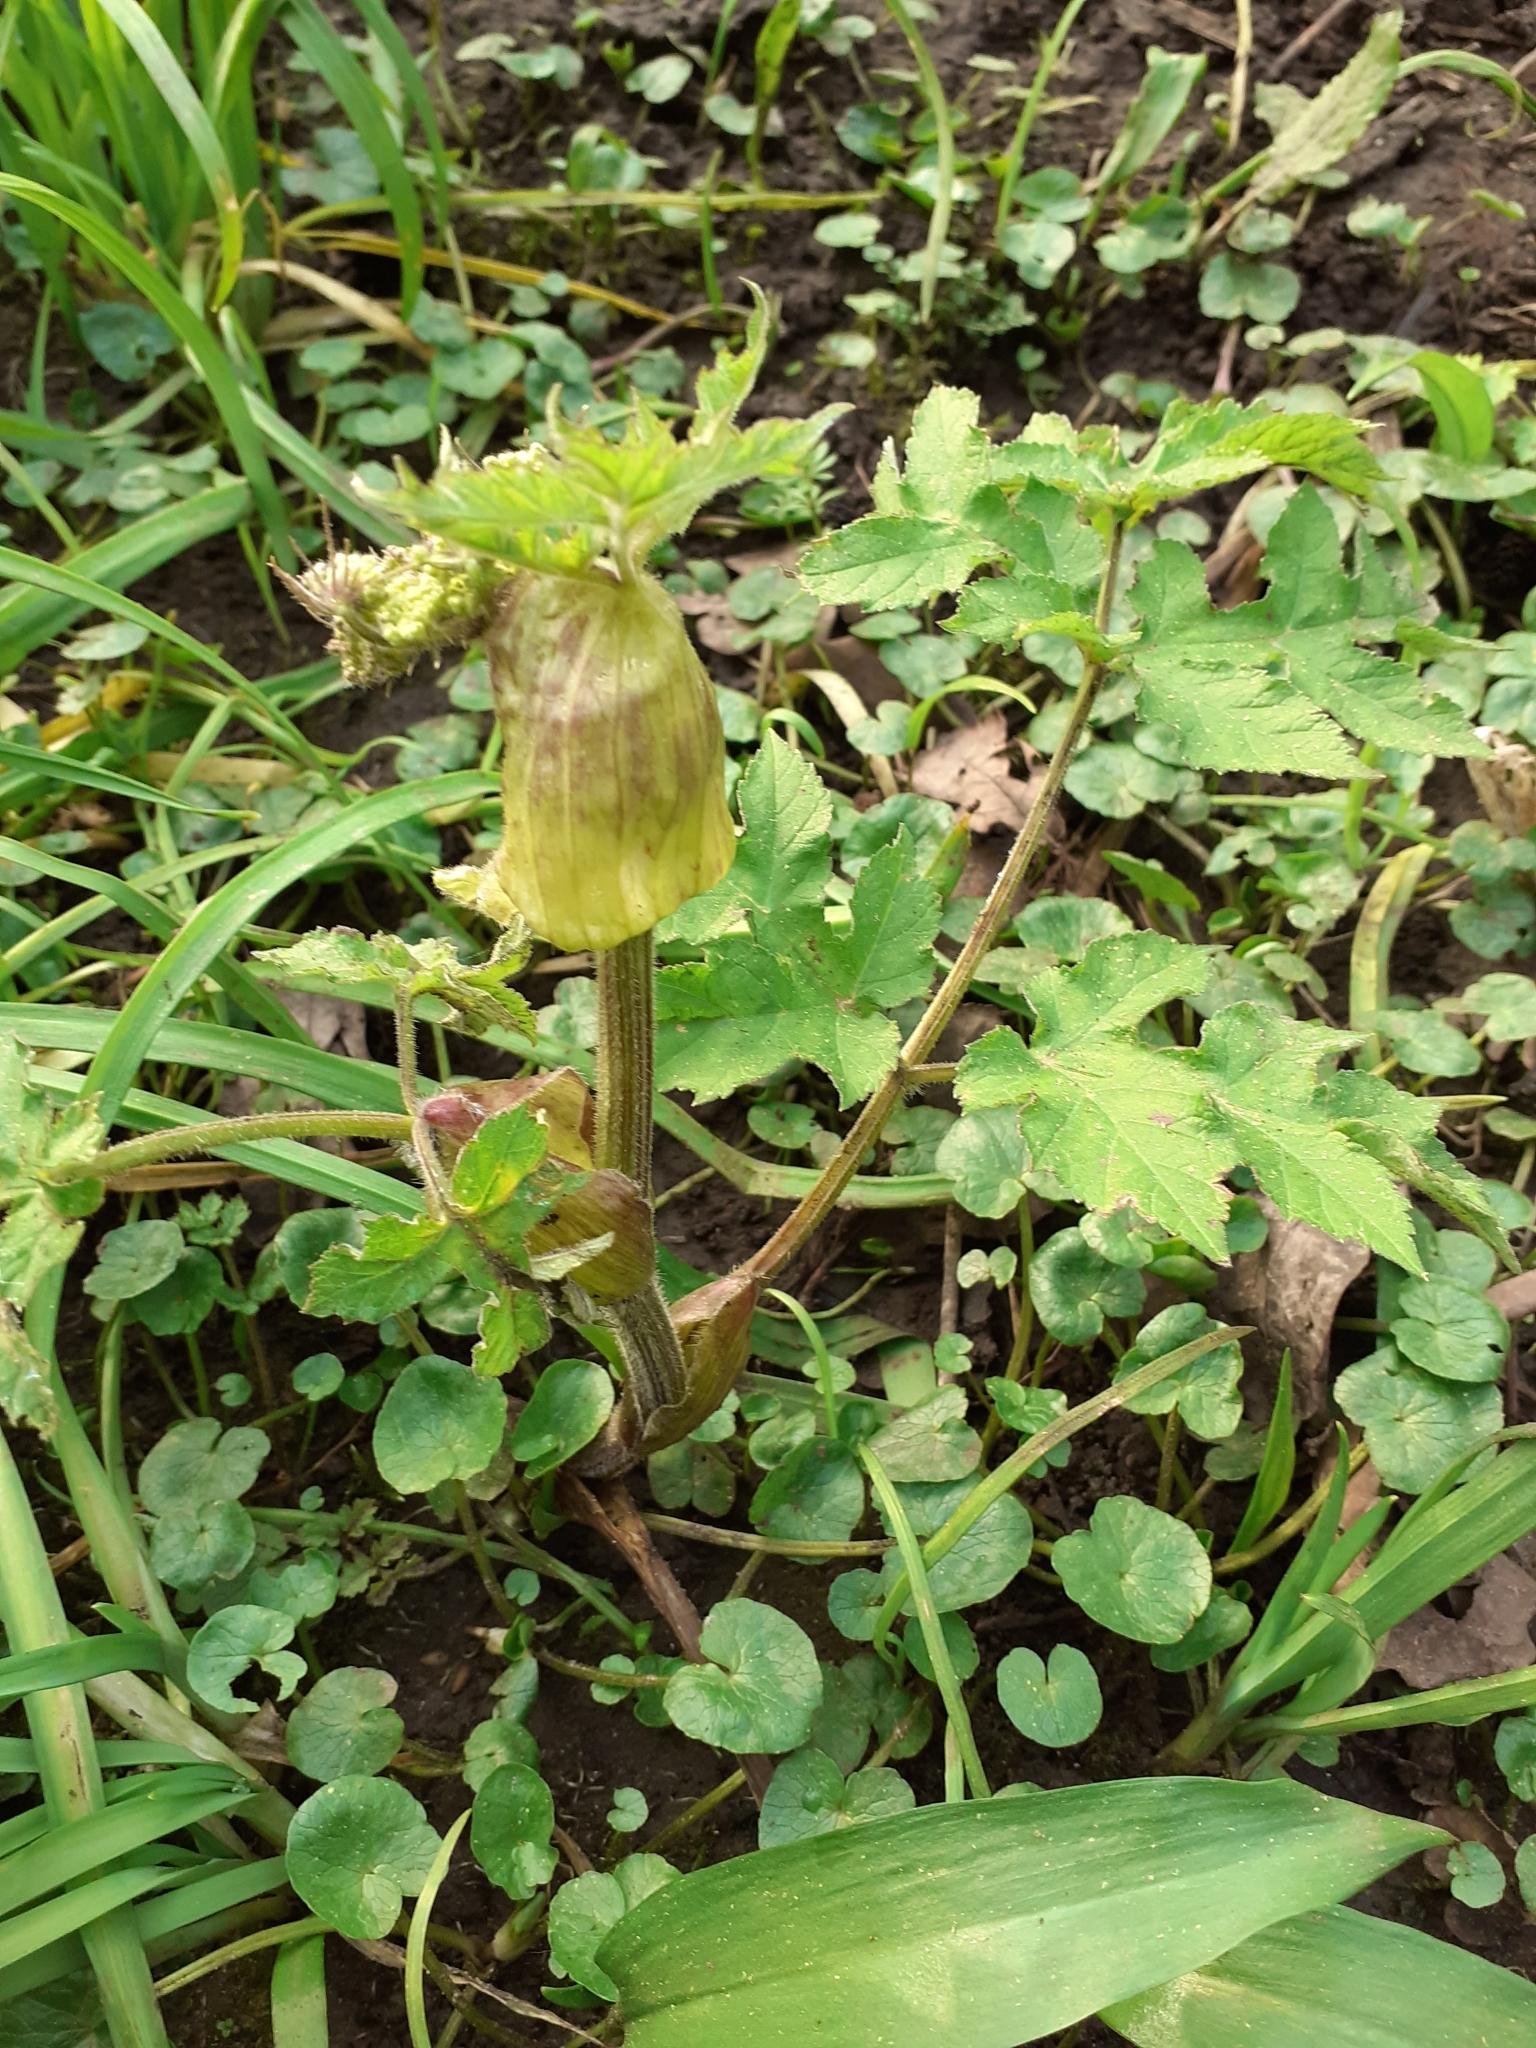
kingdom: Plantae
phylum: Tracheophyta
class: Magnoliopsida
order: Apiales
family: Apiaceae
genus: Heracleum
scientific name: Heracleum sphondylium
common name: Hogweed
